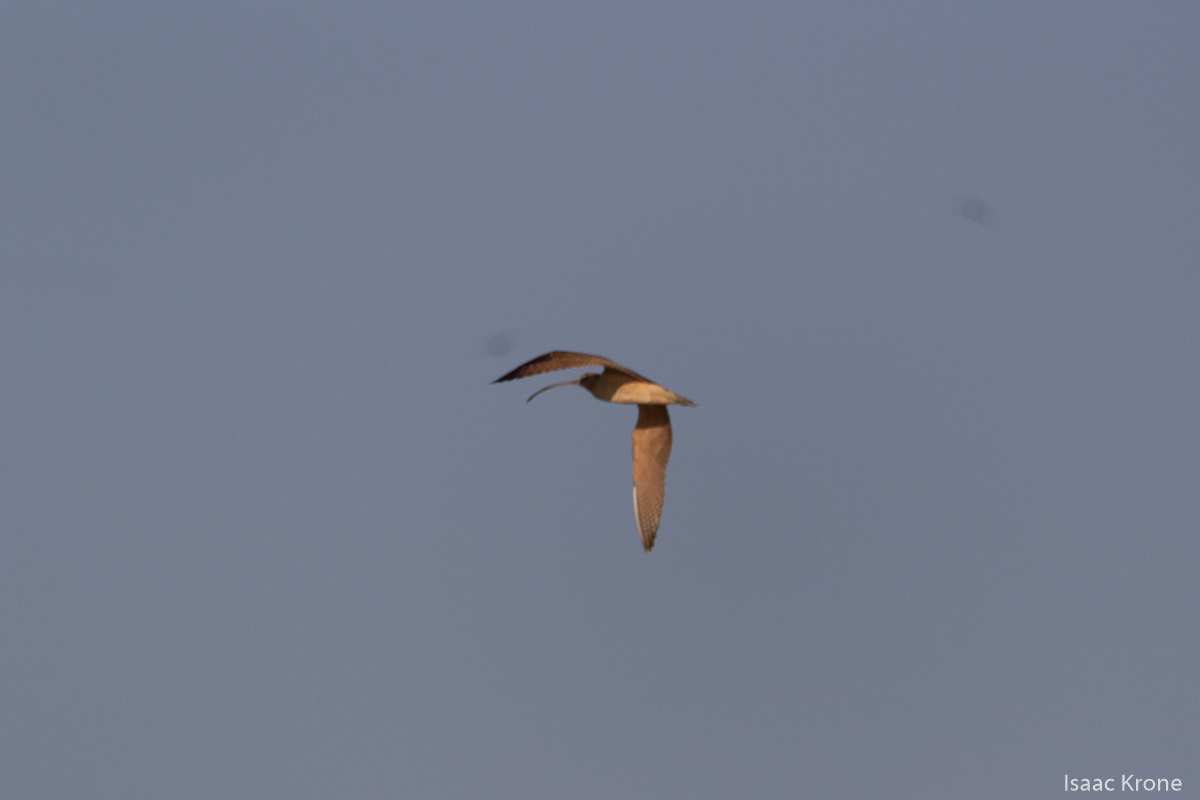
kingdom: Animalia
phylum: Chordata
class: Aves
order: Charadriiformes
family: Scolopacidae
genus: Numenius
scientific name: Numenius americanus
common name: Long-billed curlew
